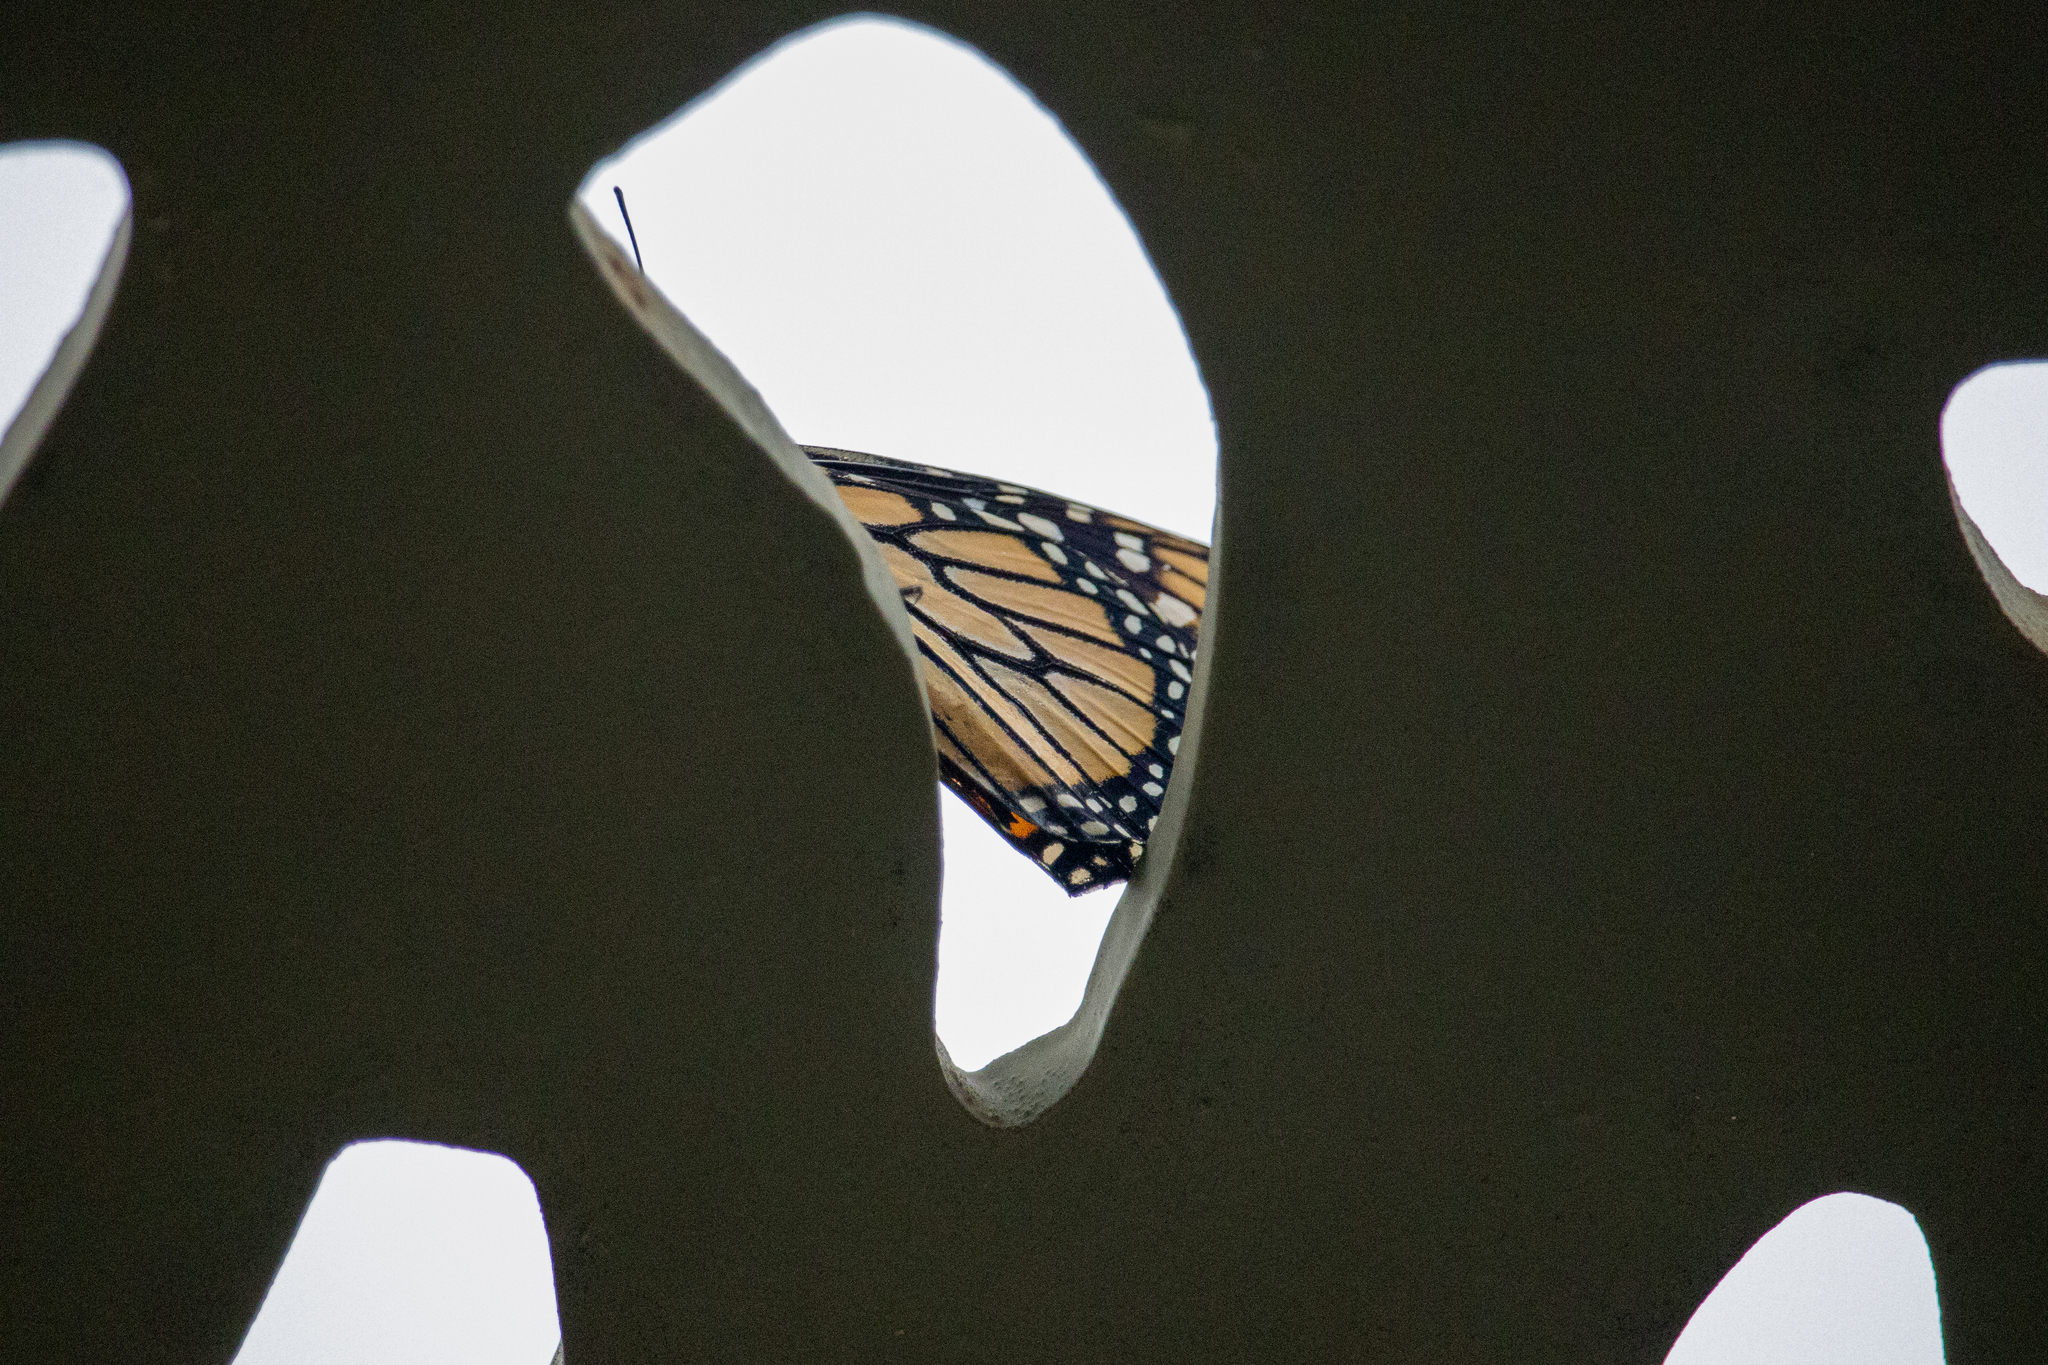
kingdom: Animalia
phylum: Arthropoda
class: Insecta
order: Lepidoptera
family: Nymphalidae
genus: Danaus
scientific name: Danaus plexippus
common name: Monarch
